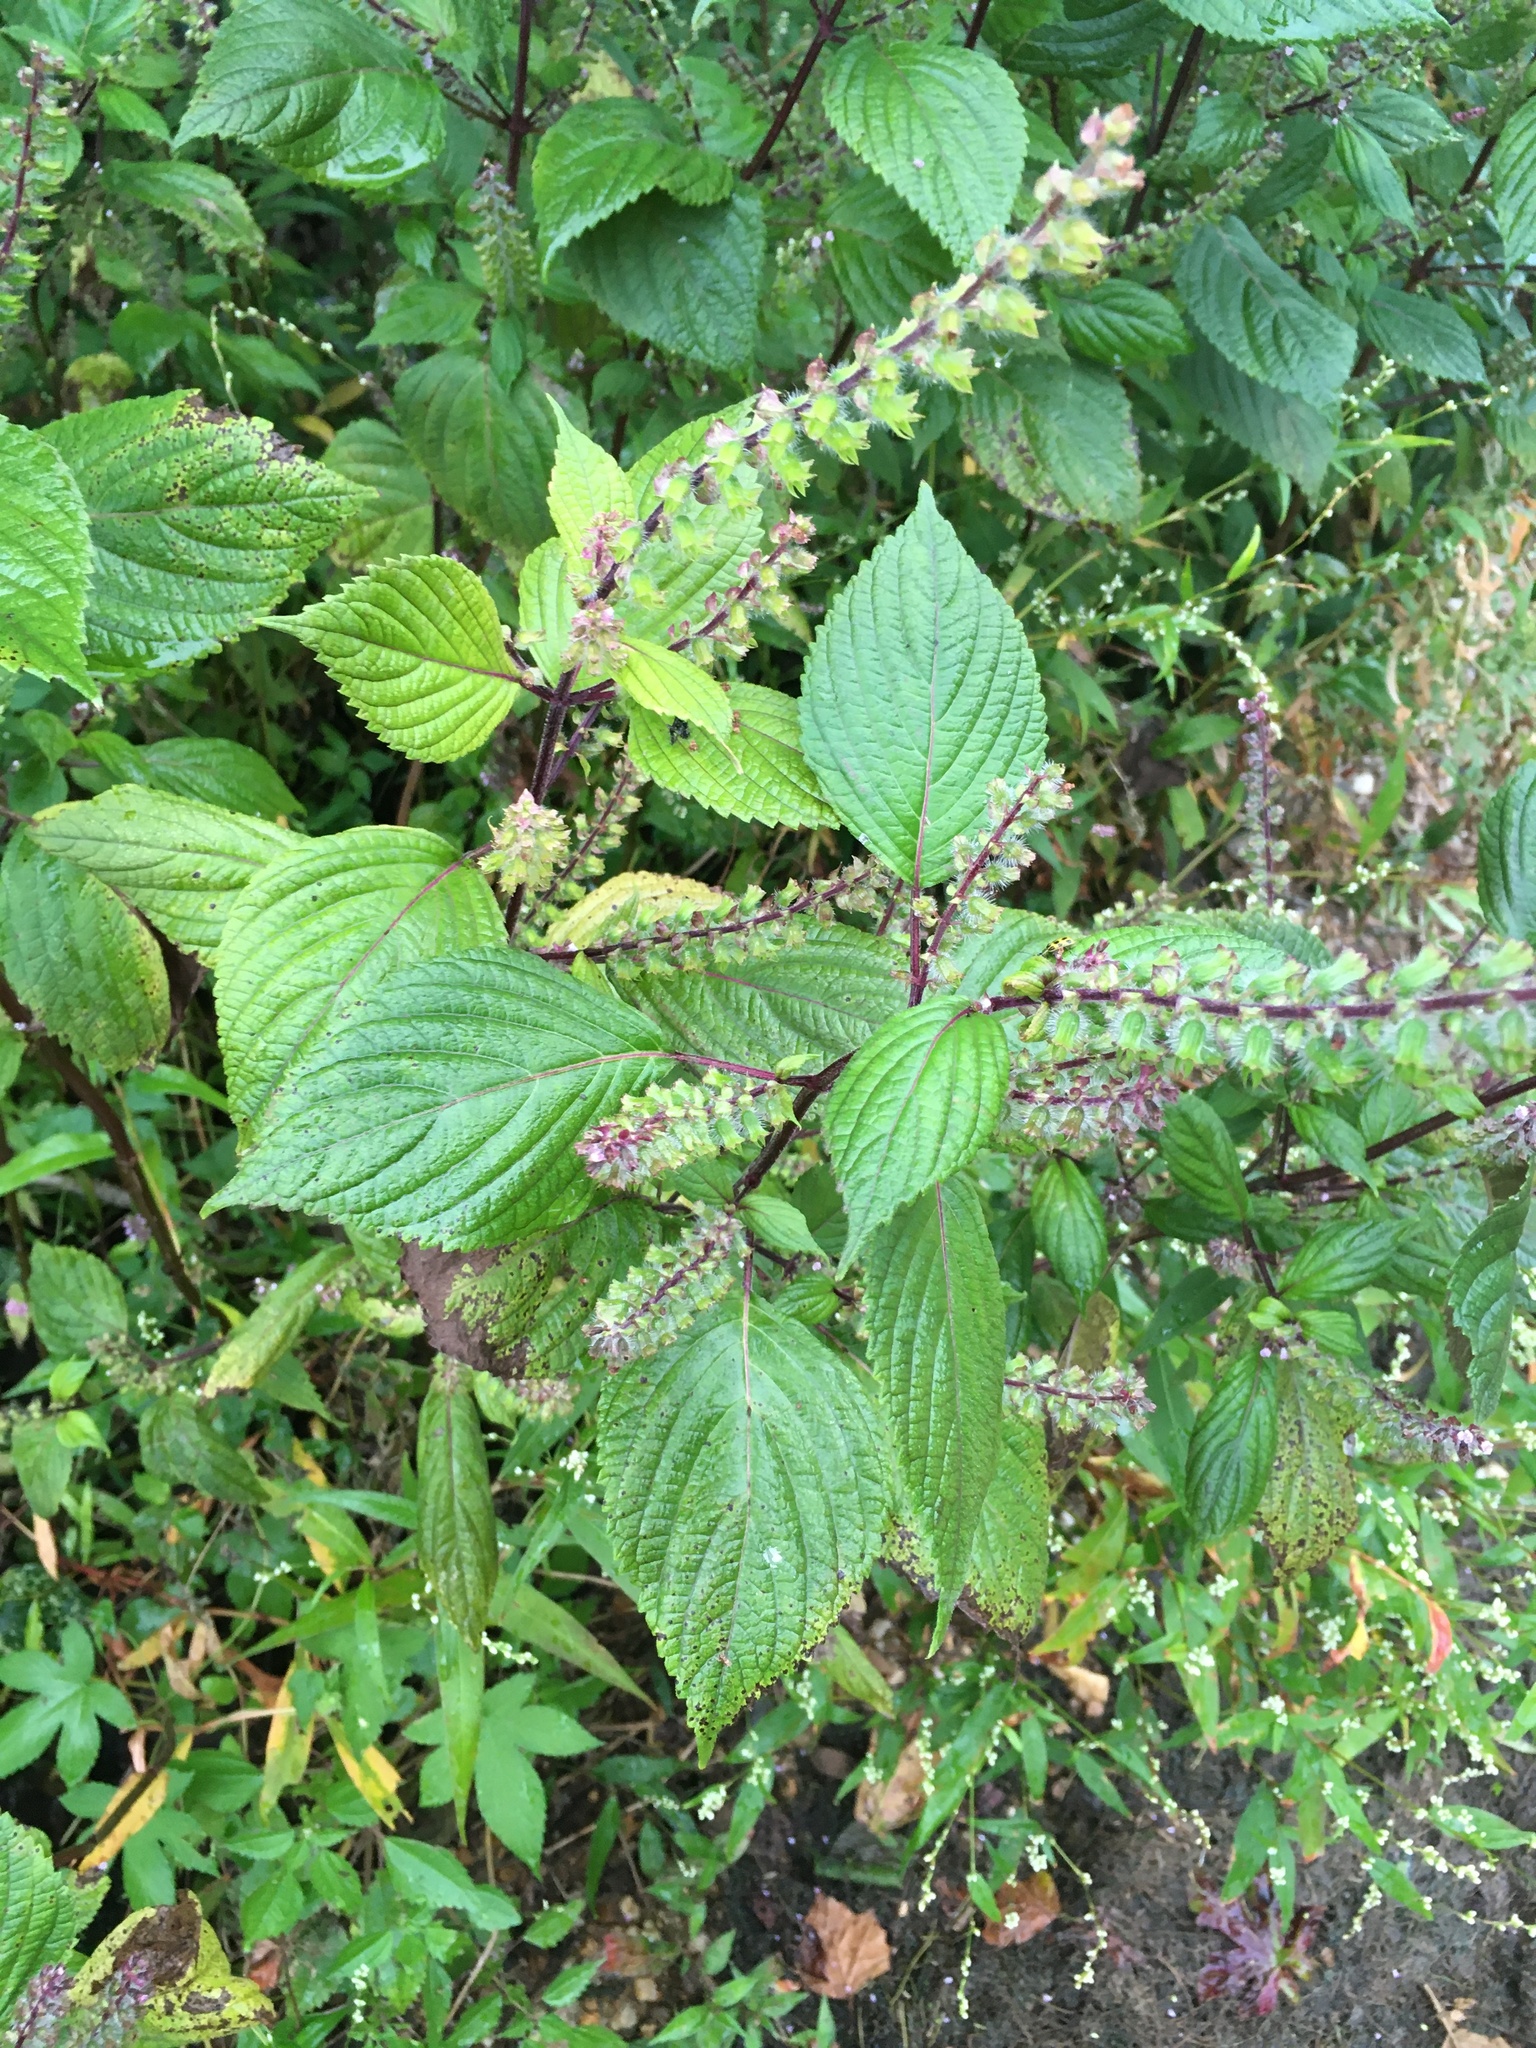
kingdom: Plantae
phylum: Tracheophyta
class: Magnoliopsida
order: Lamiales
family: Lamiaceae
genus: Perilla
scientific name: Perilla frutescens
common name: Perilla
